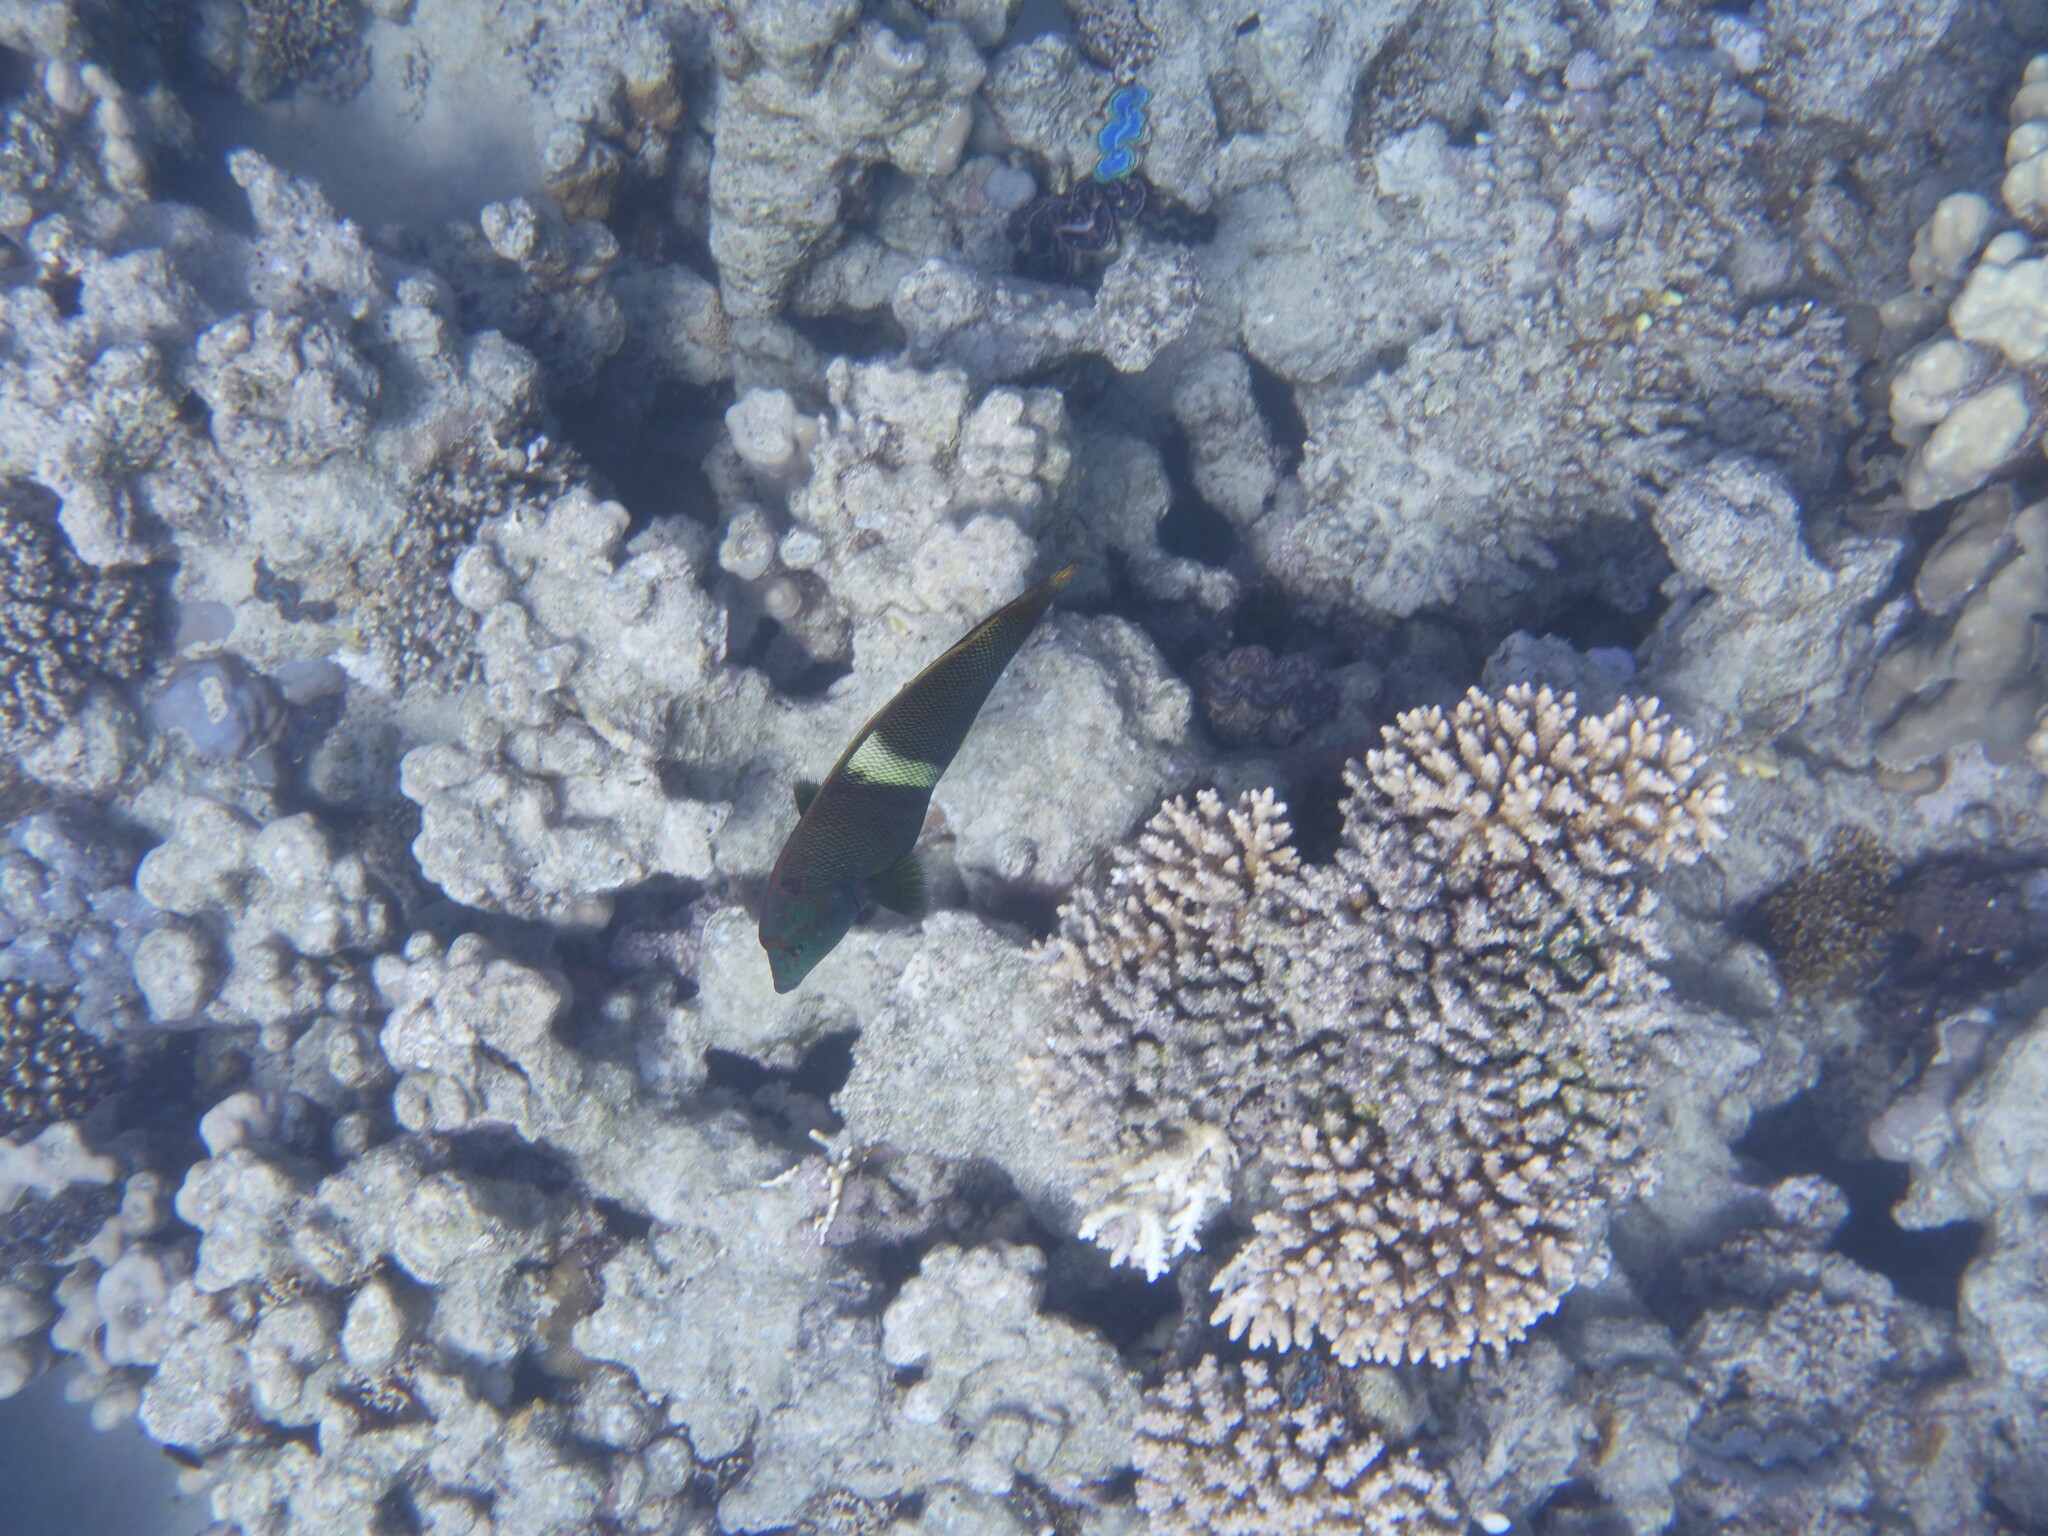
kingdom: Animalia
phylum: Chordata
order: Perciformes
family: Labridae
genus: Coris
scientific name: Coris aygula
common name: Clown coris
